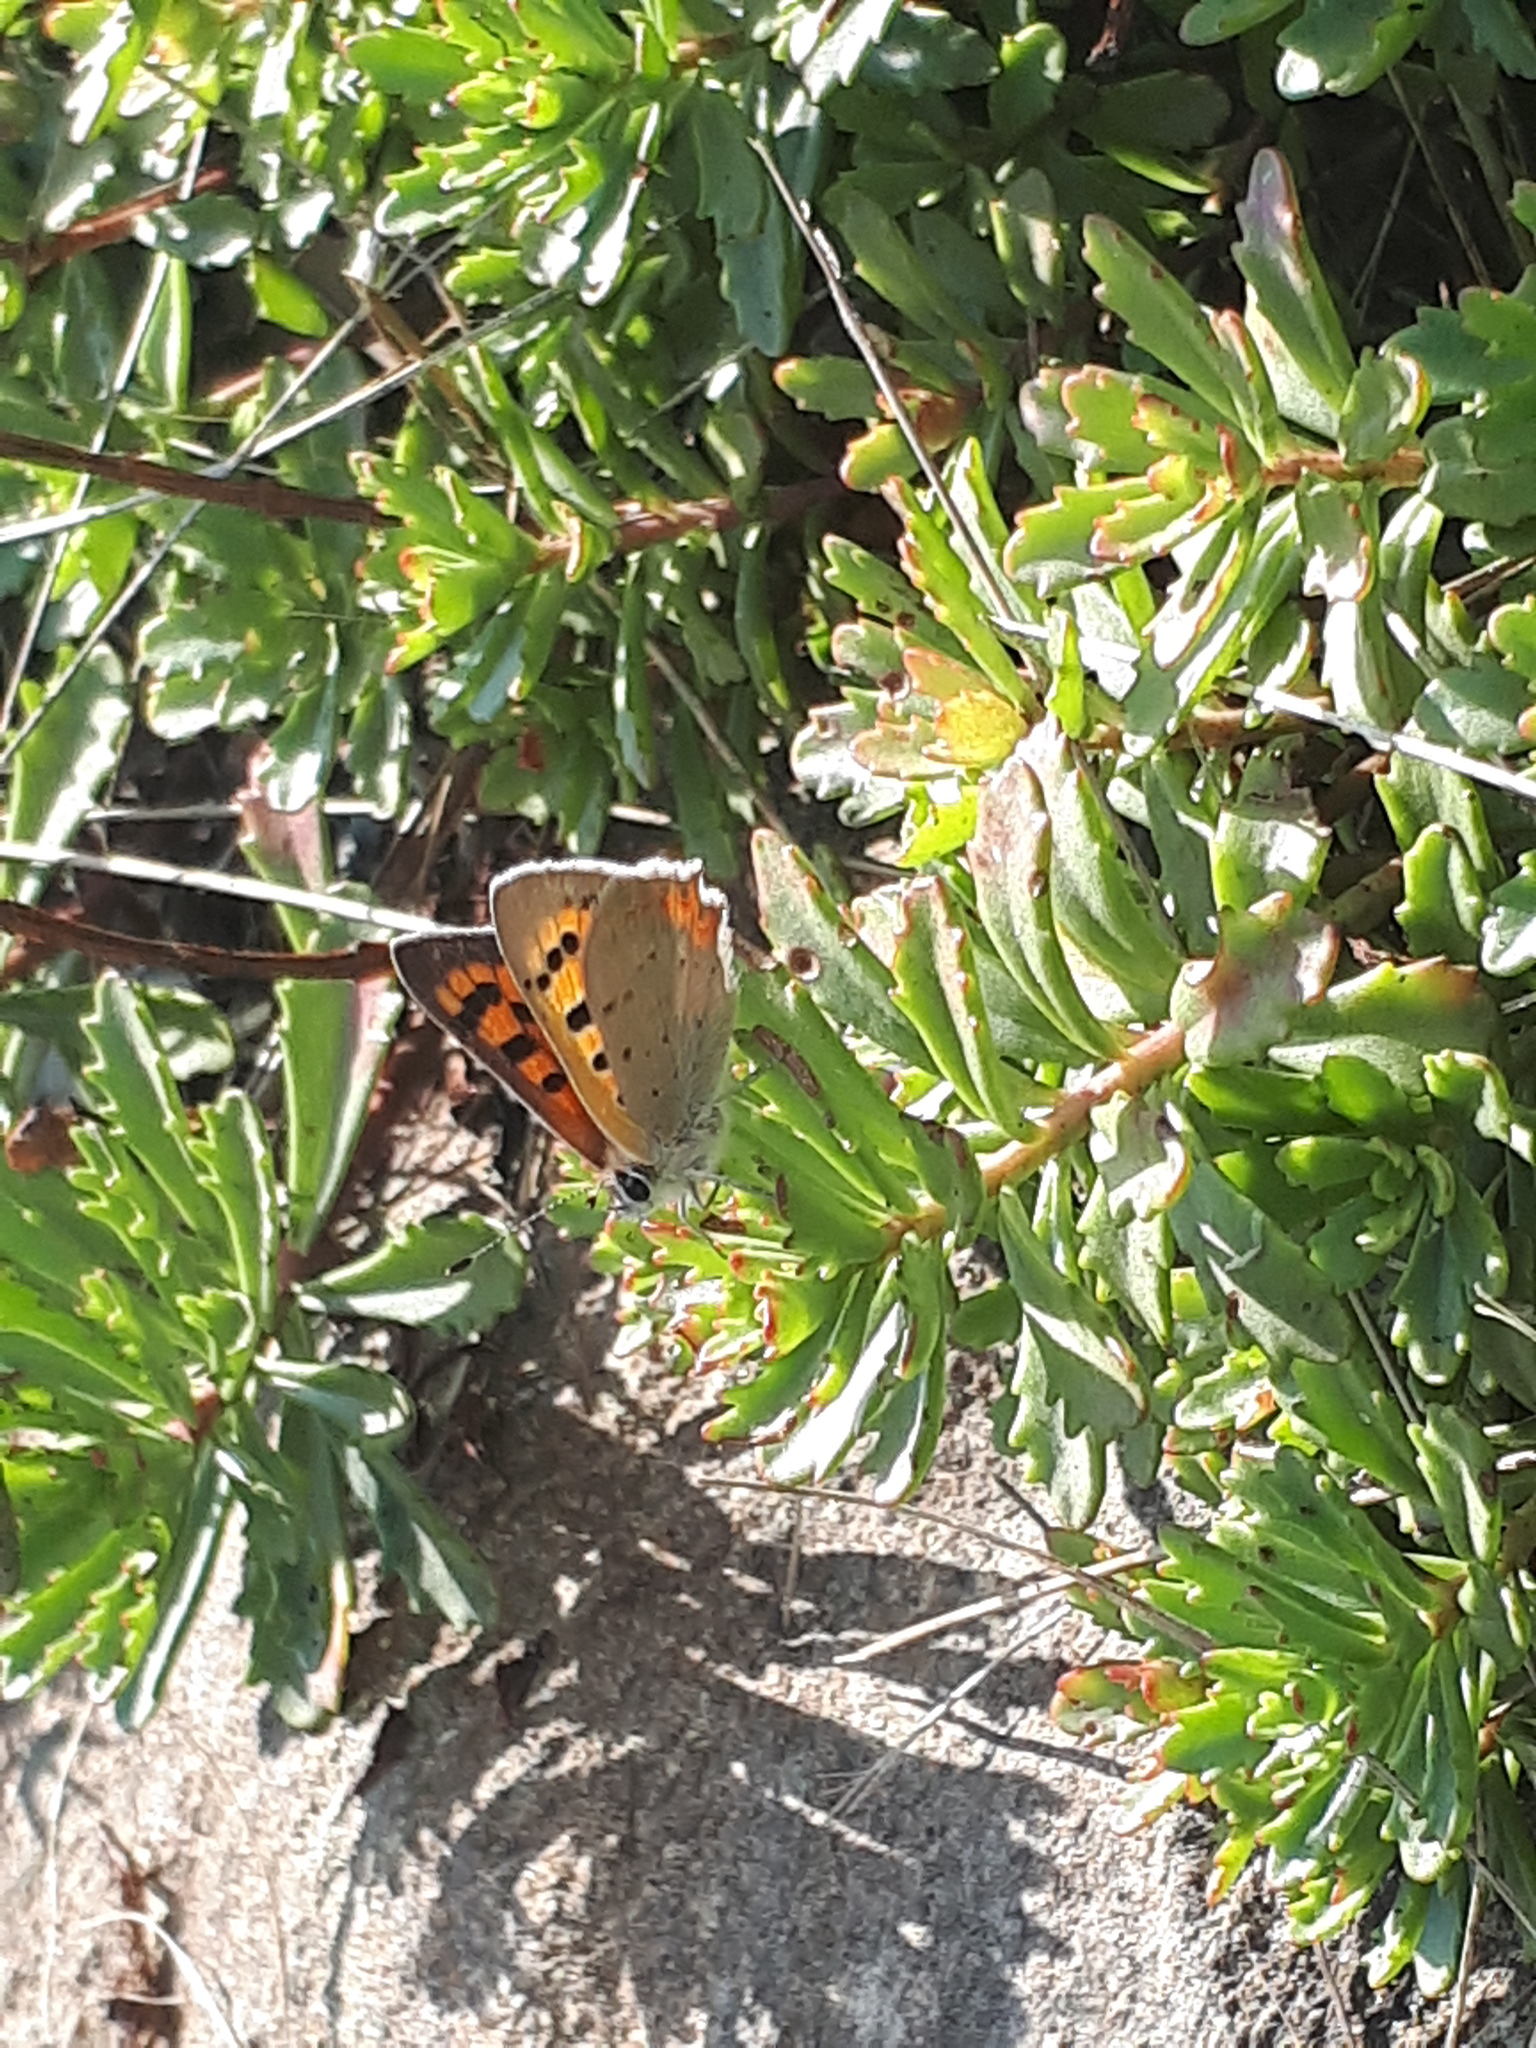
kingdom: Animalia
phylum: Arthropoda
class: Insecta
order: Lepidoptera
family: Lycaenidae
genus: Lycaena
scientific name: Lycaena phlaeas
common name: Small copper
